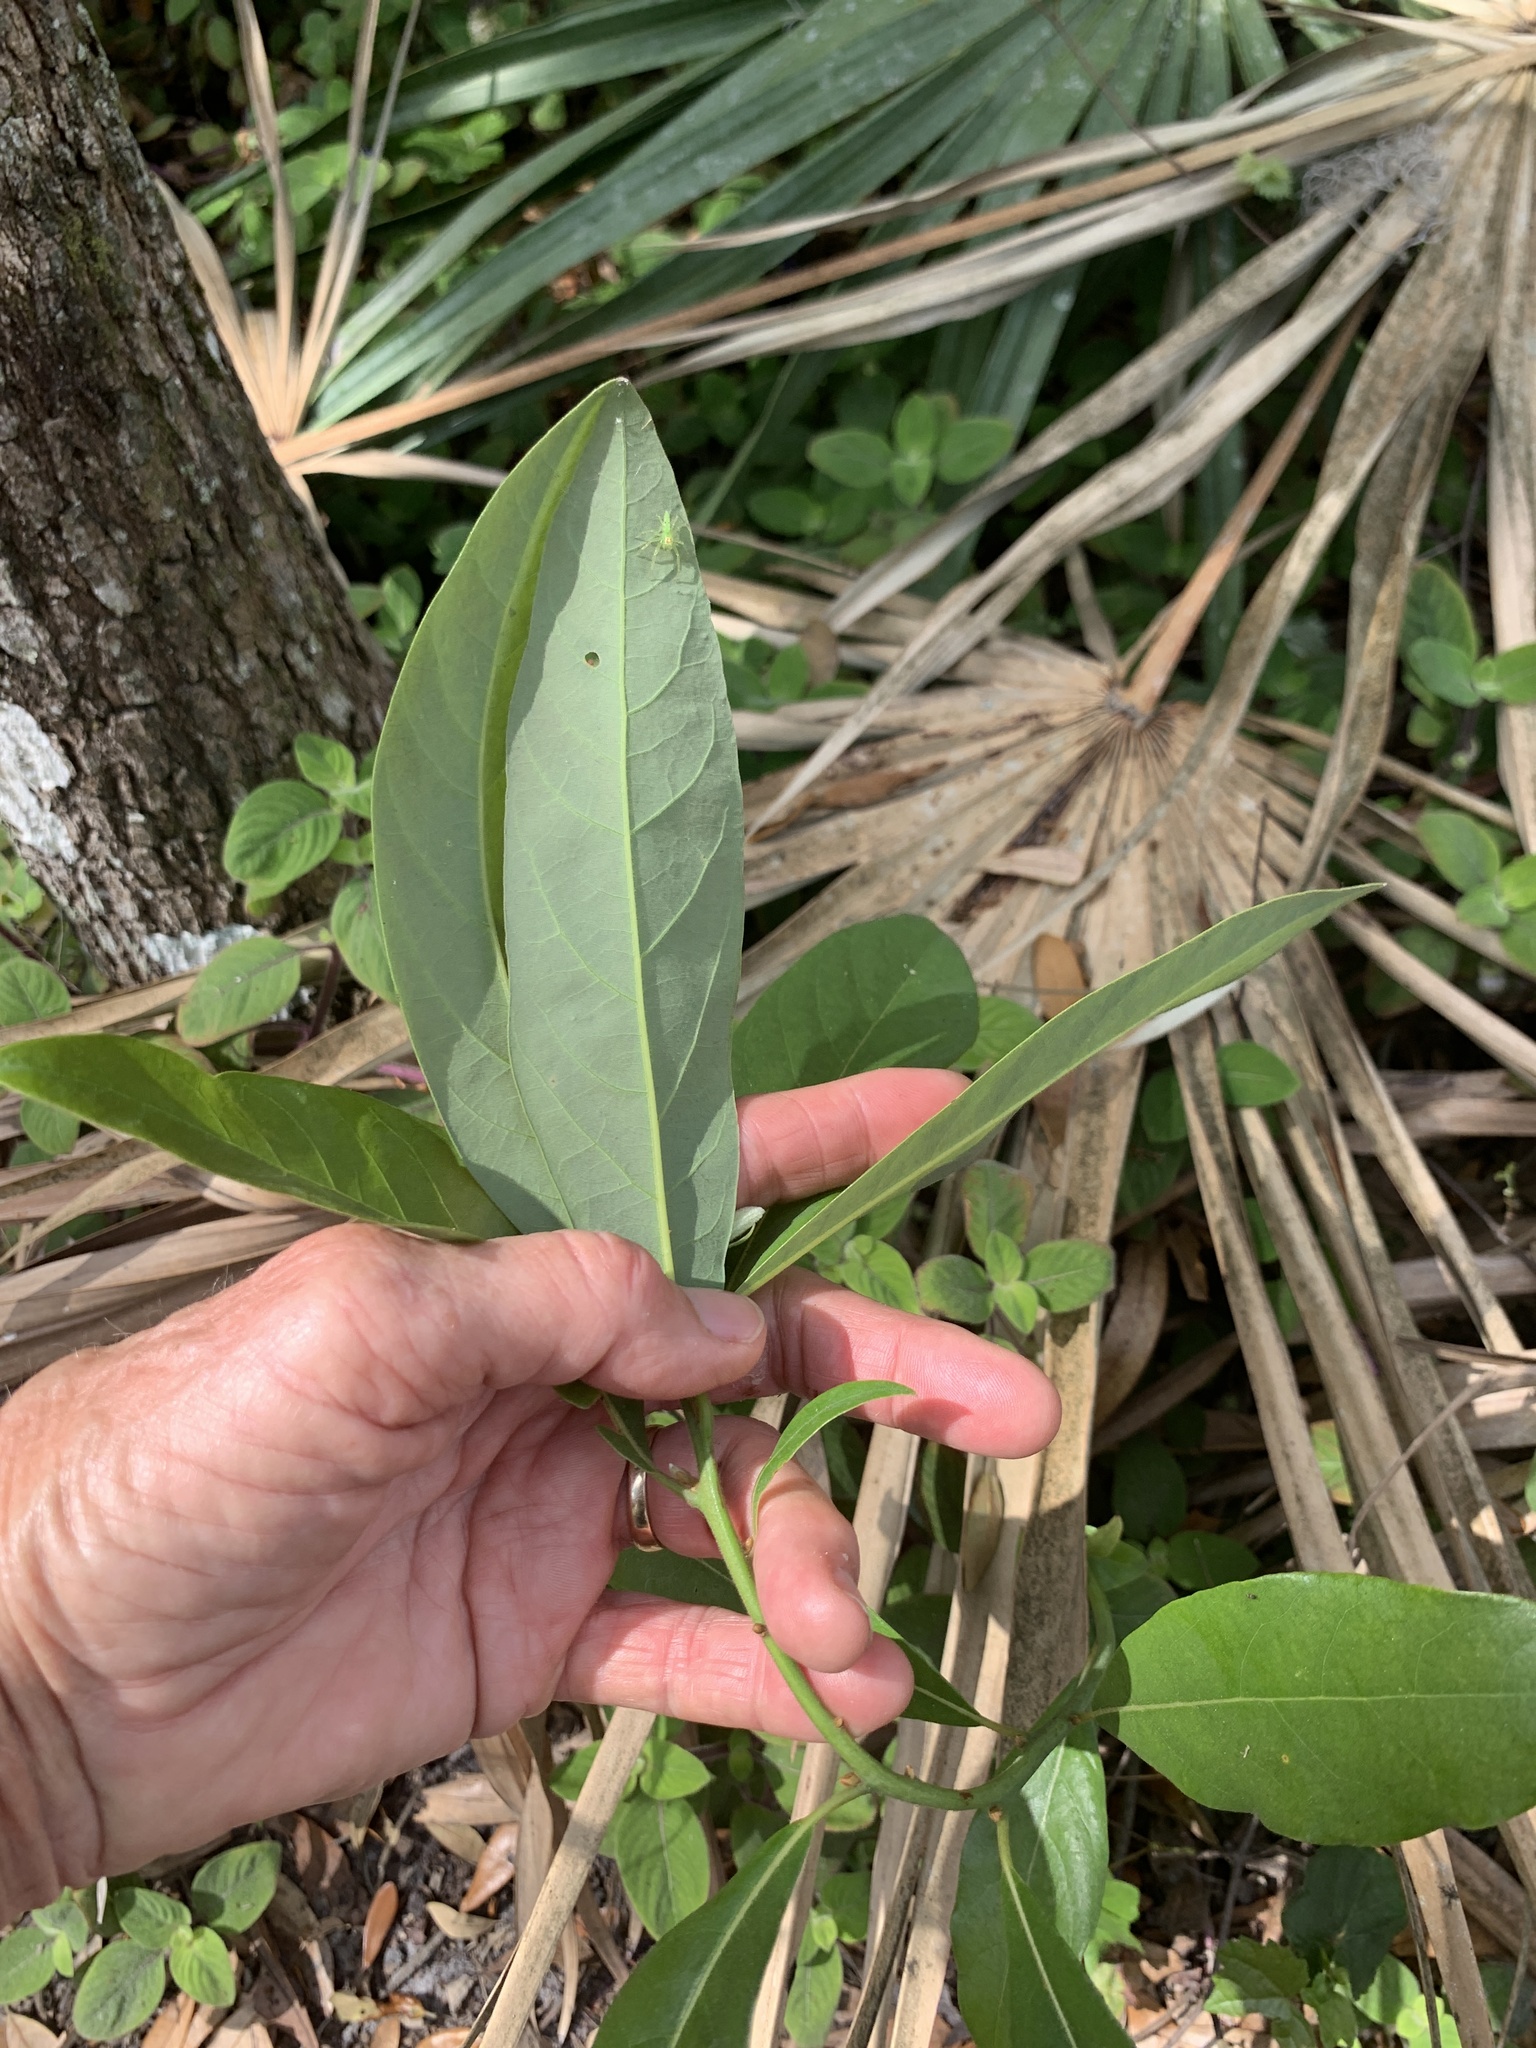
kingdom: Plantae
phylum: Tracheophyta
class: Magnoliopsida
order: Laurales
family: Lauraceae
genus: Persea
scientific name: Persea palustris
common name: Swampbay
